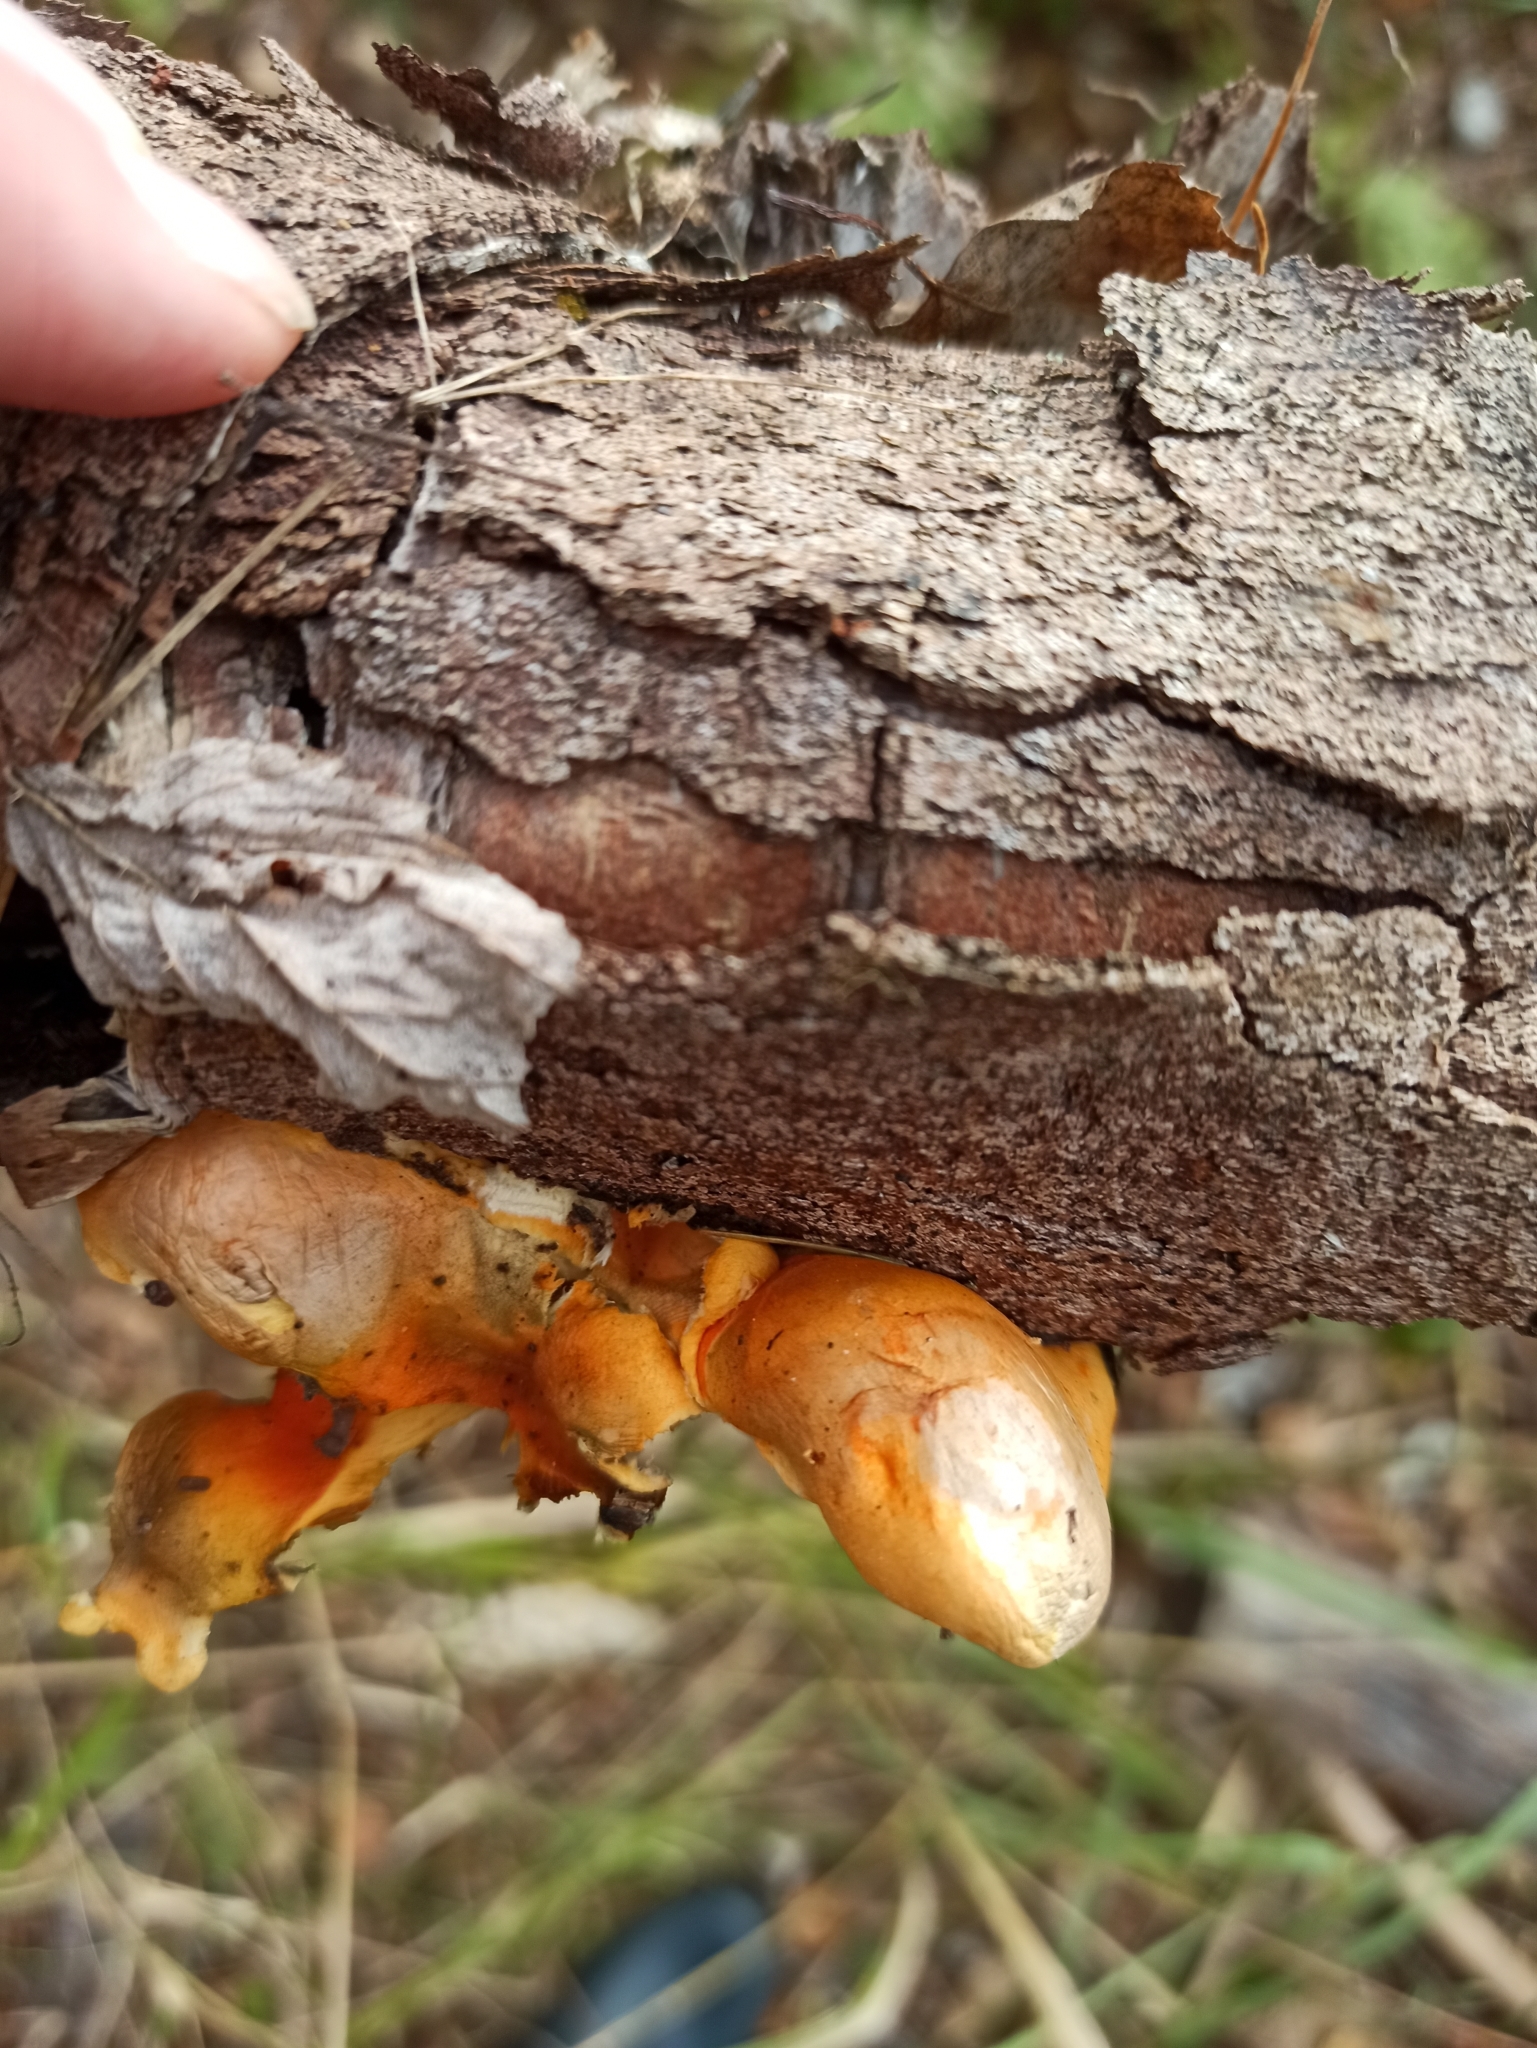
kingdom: Fungi
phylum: Basidiomycota
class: Agaricomycetes
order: Boletales
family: Hygrophoropsidaceae
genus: Hygrophoropsis
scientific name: Hygrophoropsis aurantiaca
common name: False chanterelle
